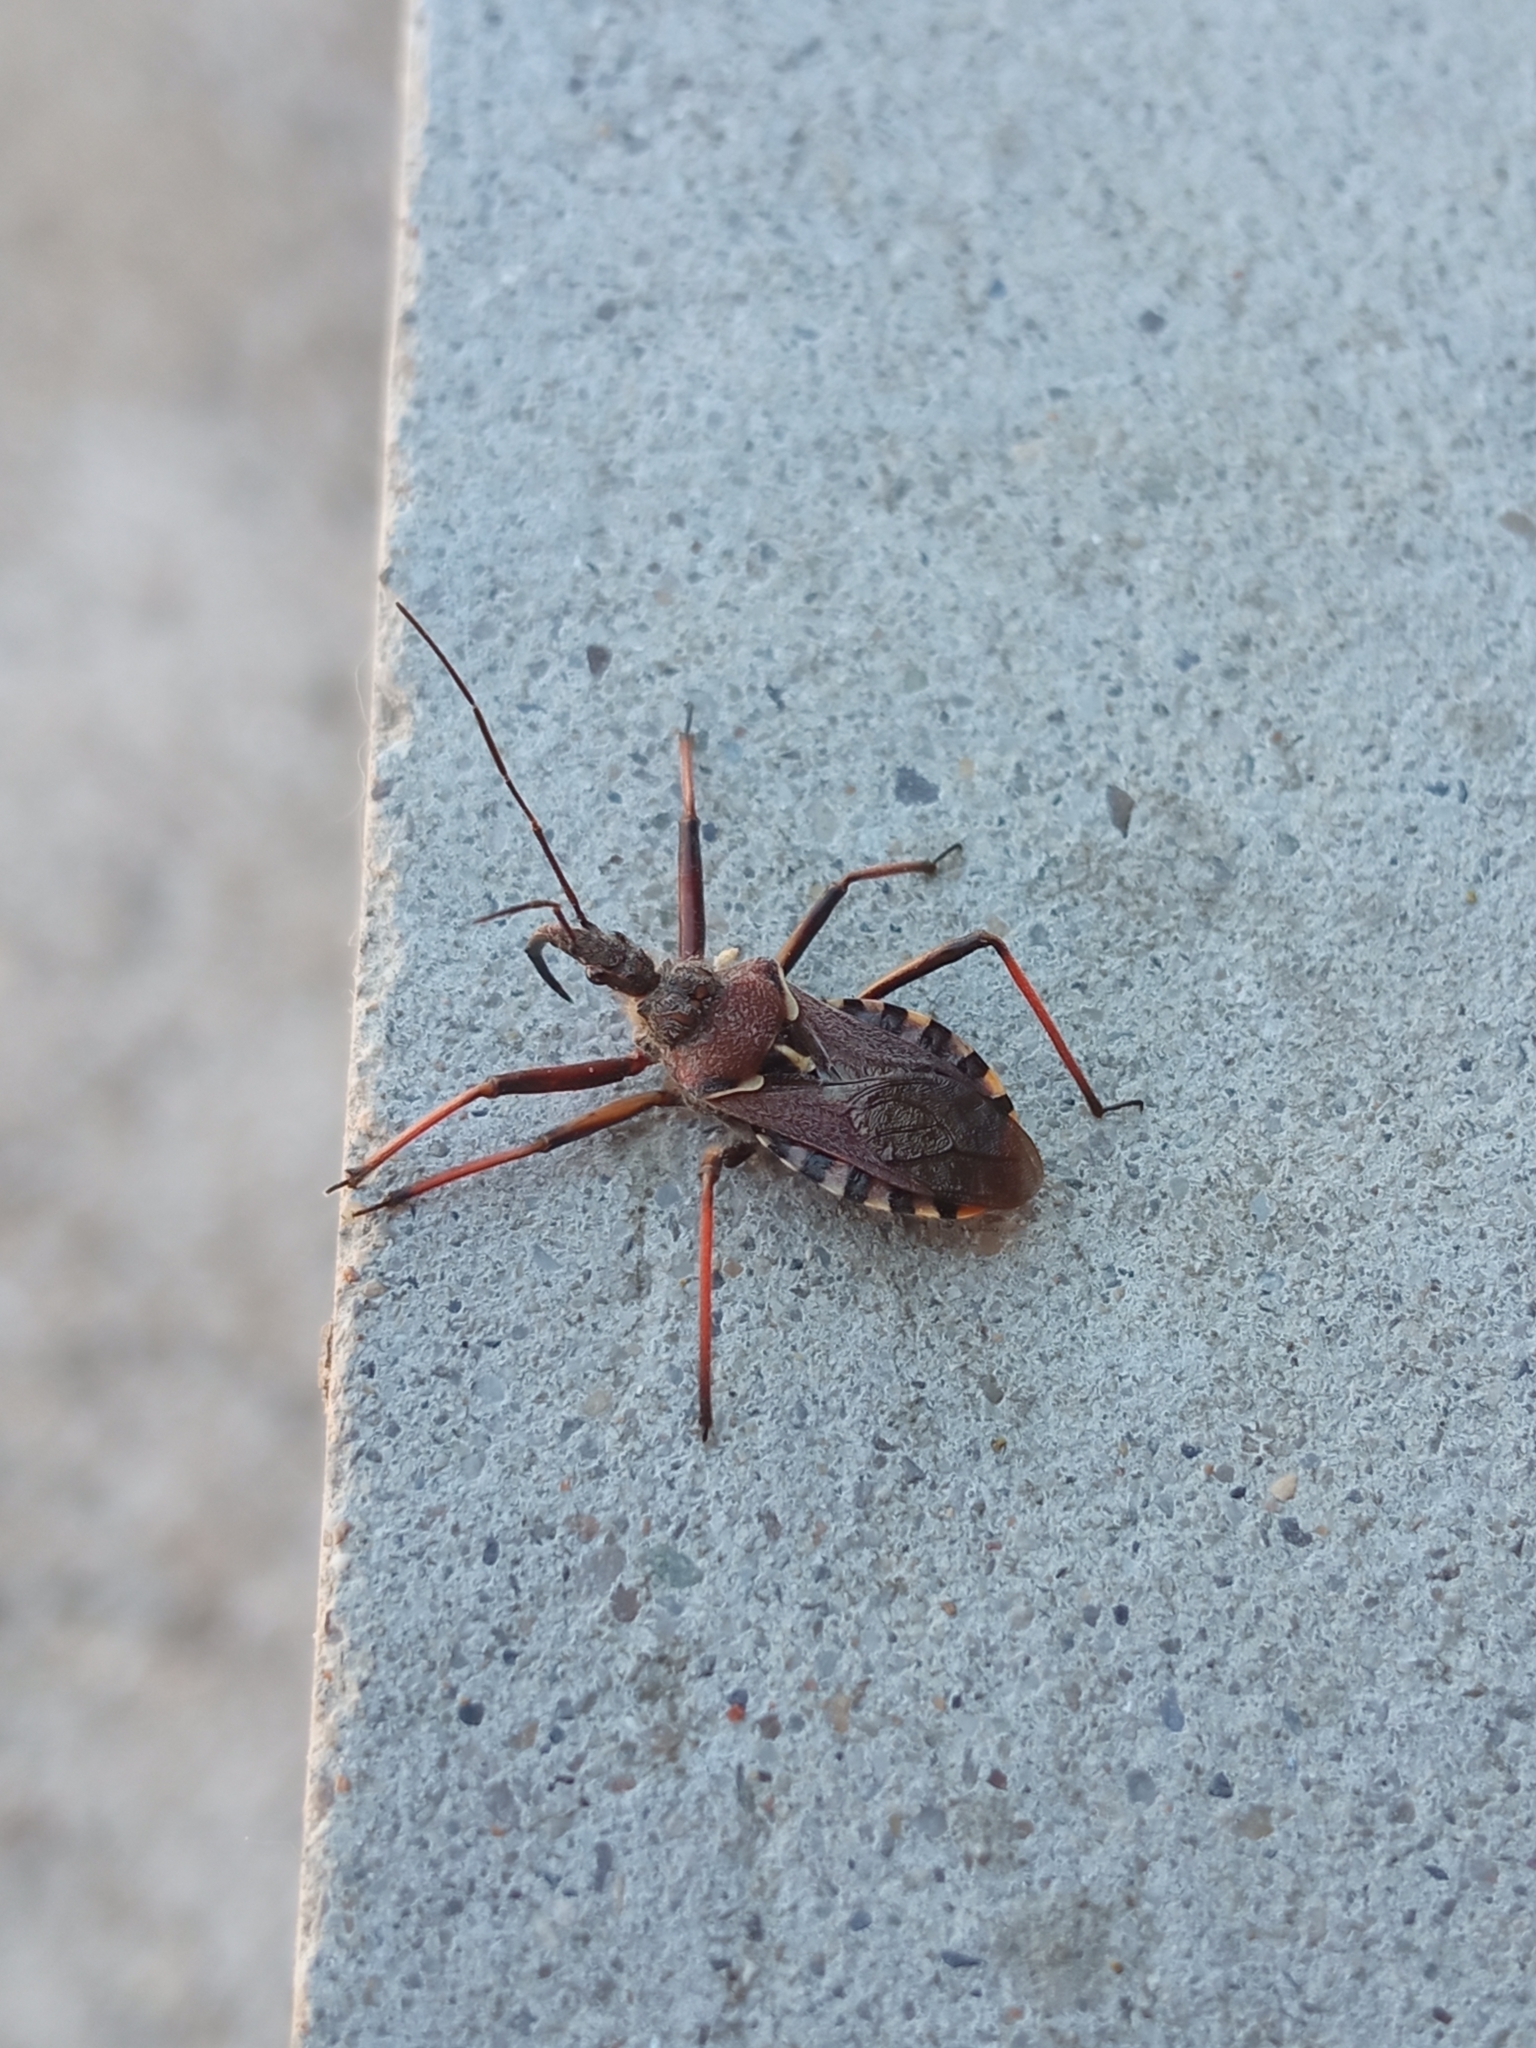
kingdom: Animalia
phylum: Arthropoda
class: Insecta
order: Hemiptera
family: Reduviidae
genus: Rhynocoris
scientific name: Rhynocoris erythropus
